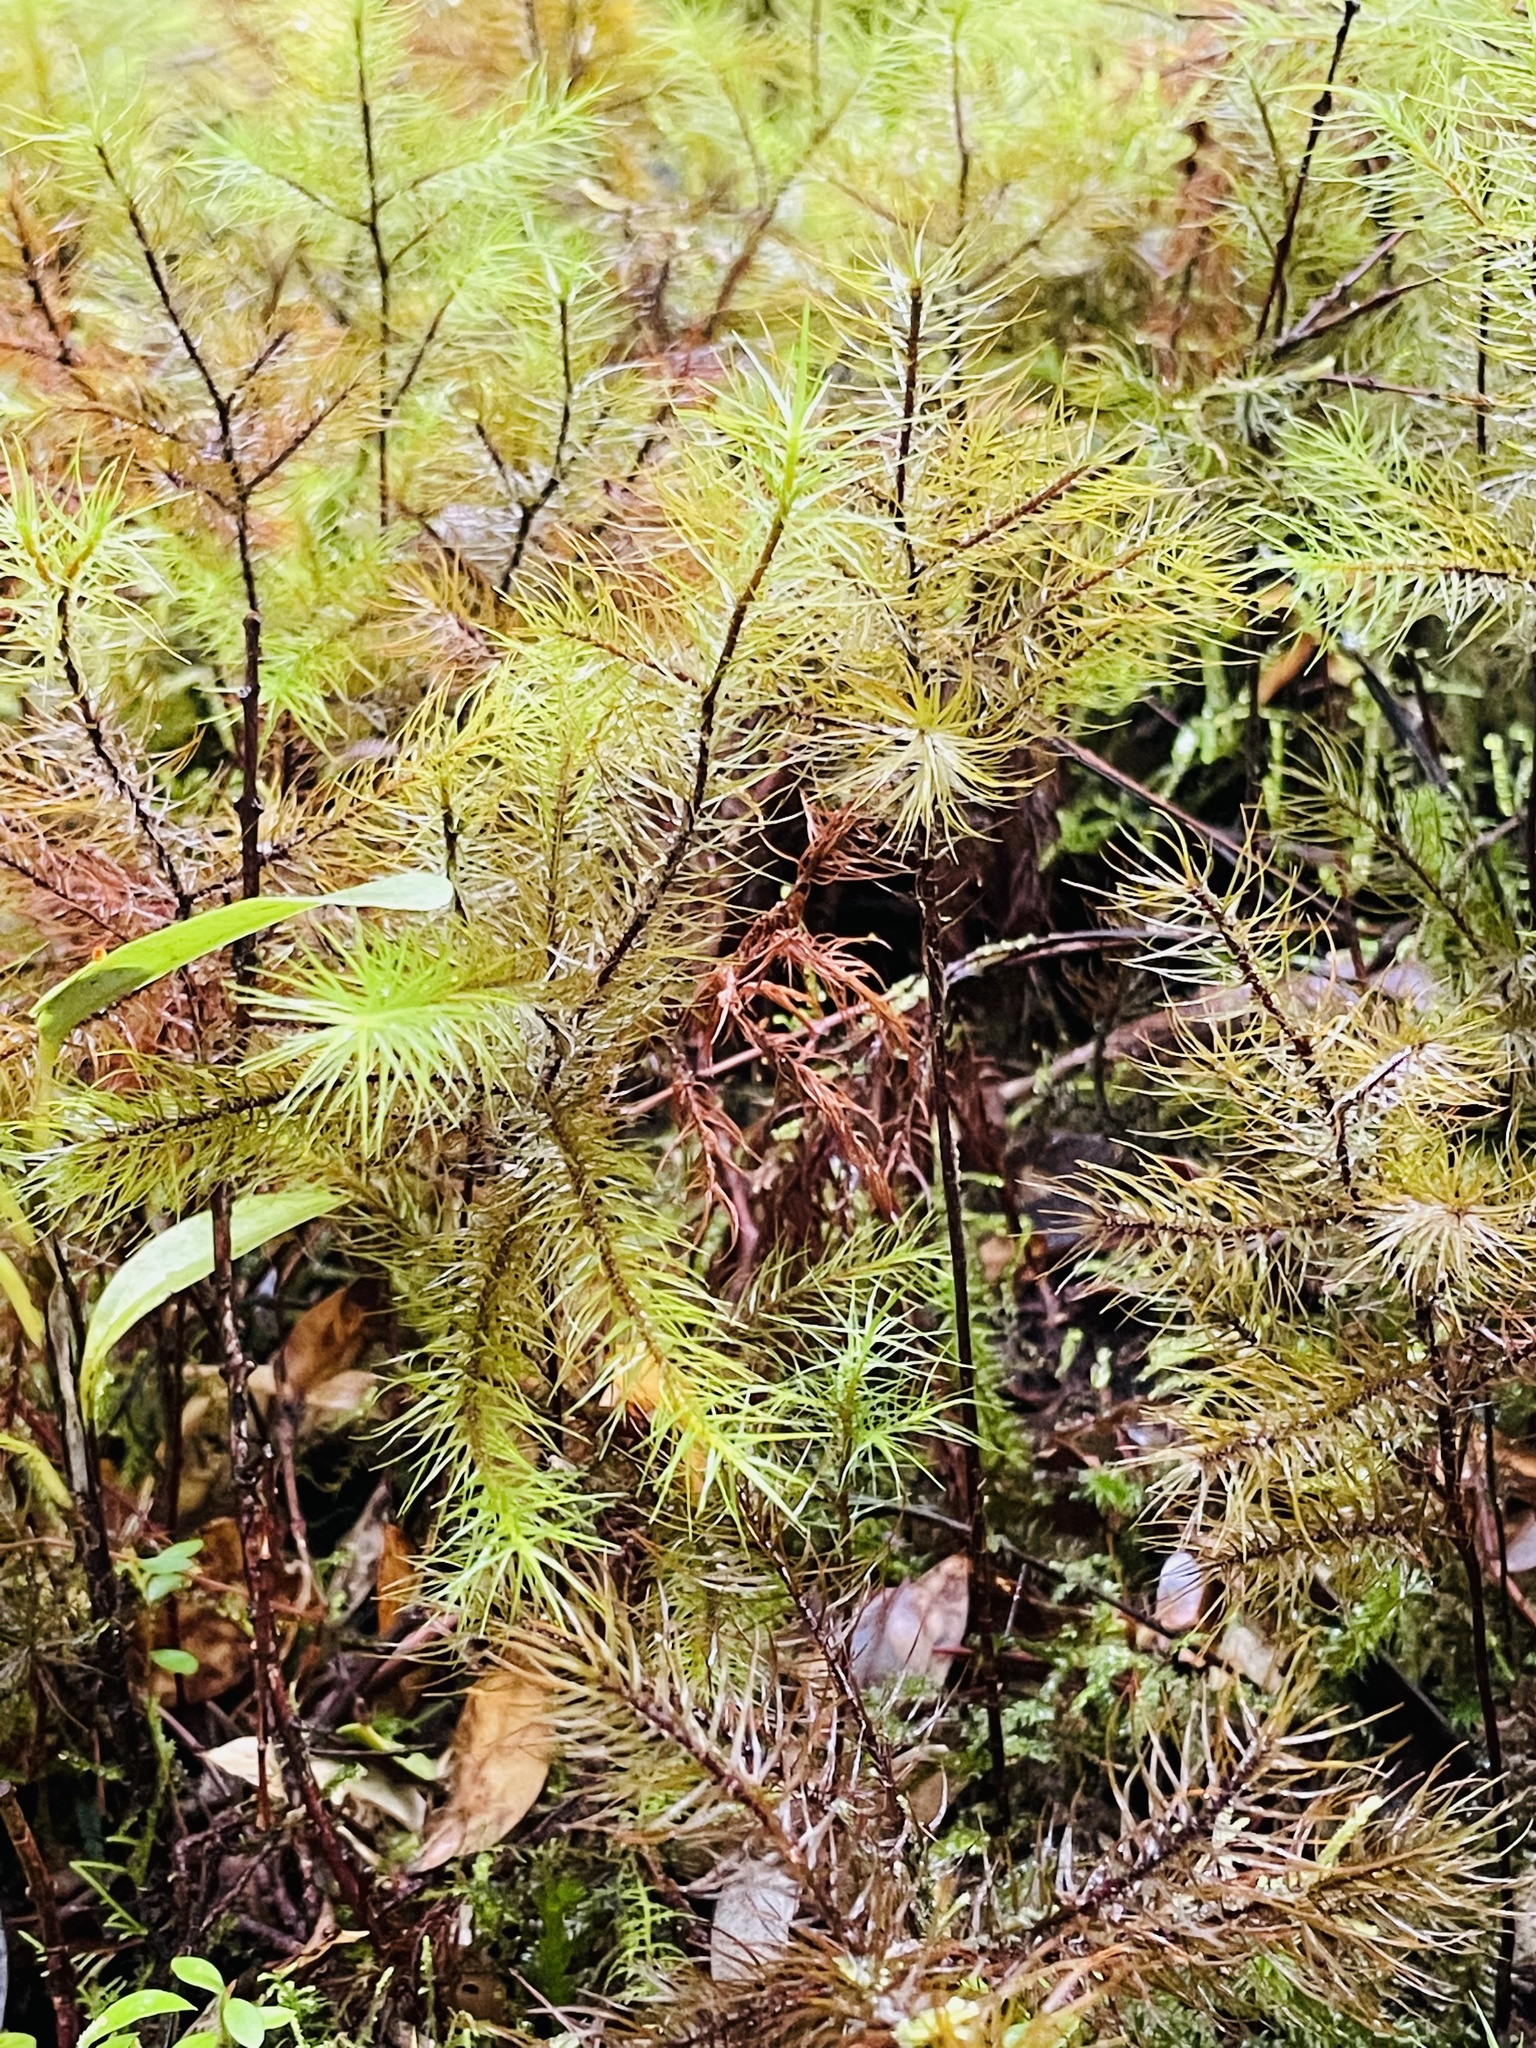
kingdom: Plantae
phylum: Bryophyta
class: Polytrichopsida
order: Polytrichales
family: Polytrichaceae
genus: Dendroligotrichum
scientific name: Dendroligotrichum dendroides
